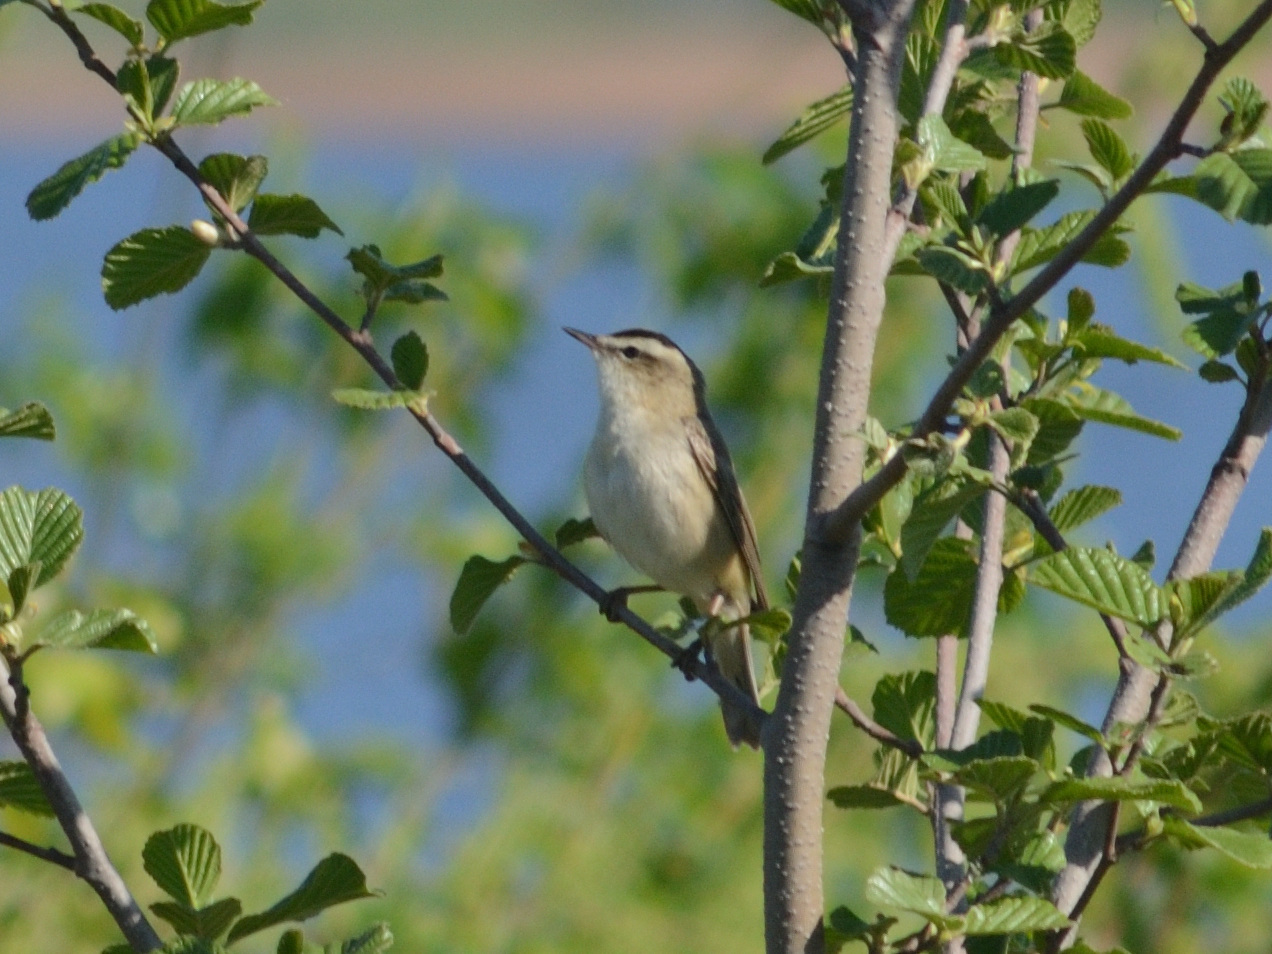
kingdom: Animalia
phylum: Chordata
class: Aves
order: Passeriformes
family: Acrocephalidae
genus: Acrocephalus
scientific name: Acrocephalus schoenobaenus
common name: Sedge warbler
